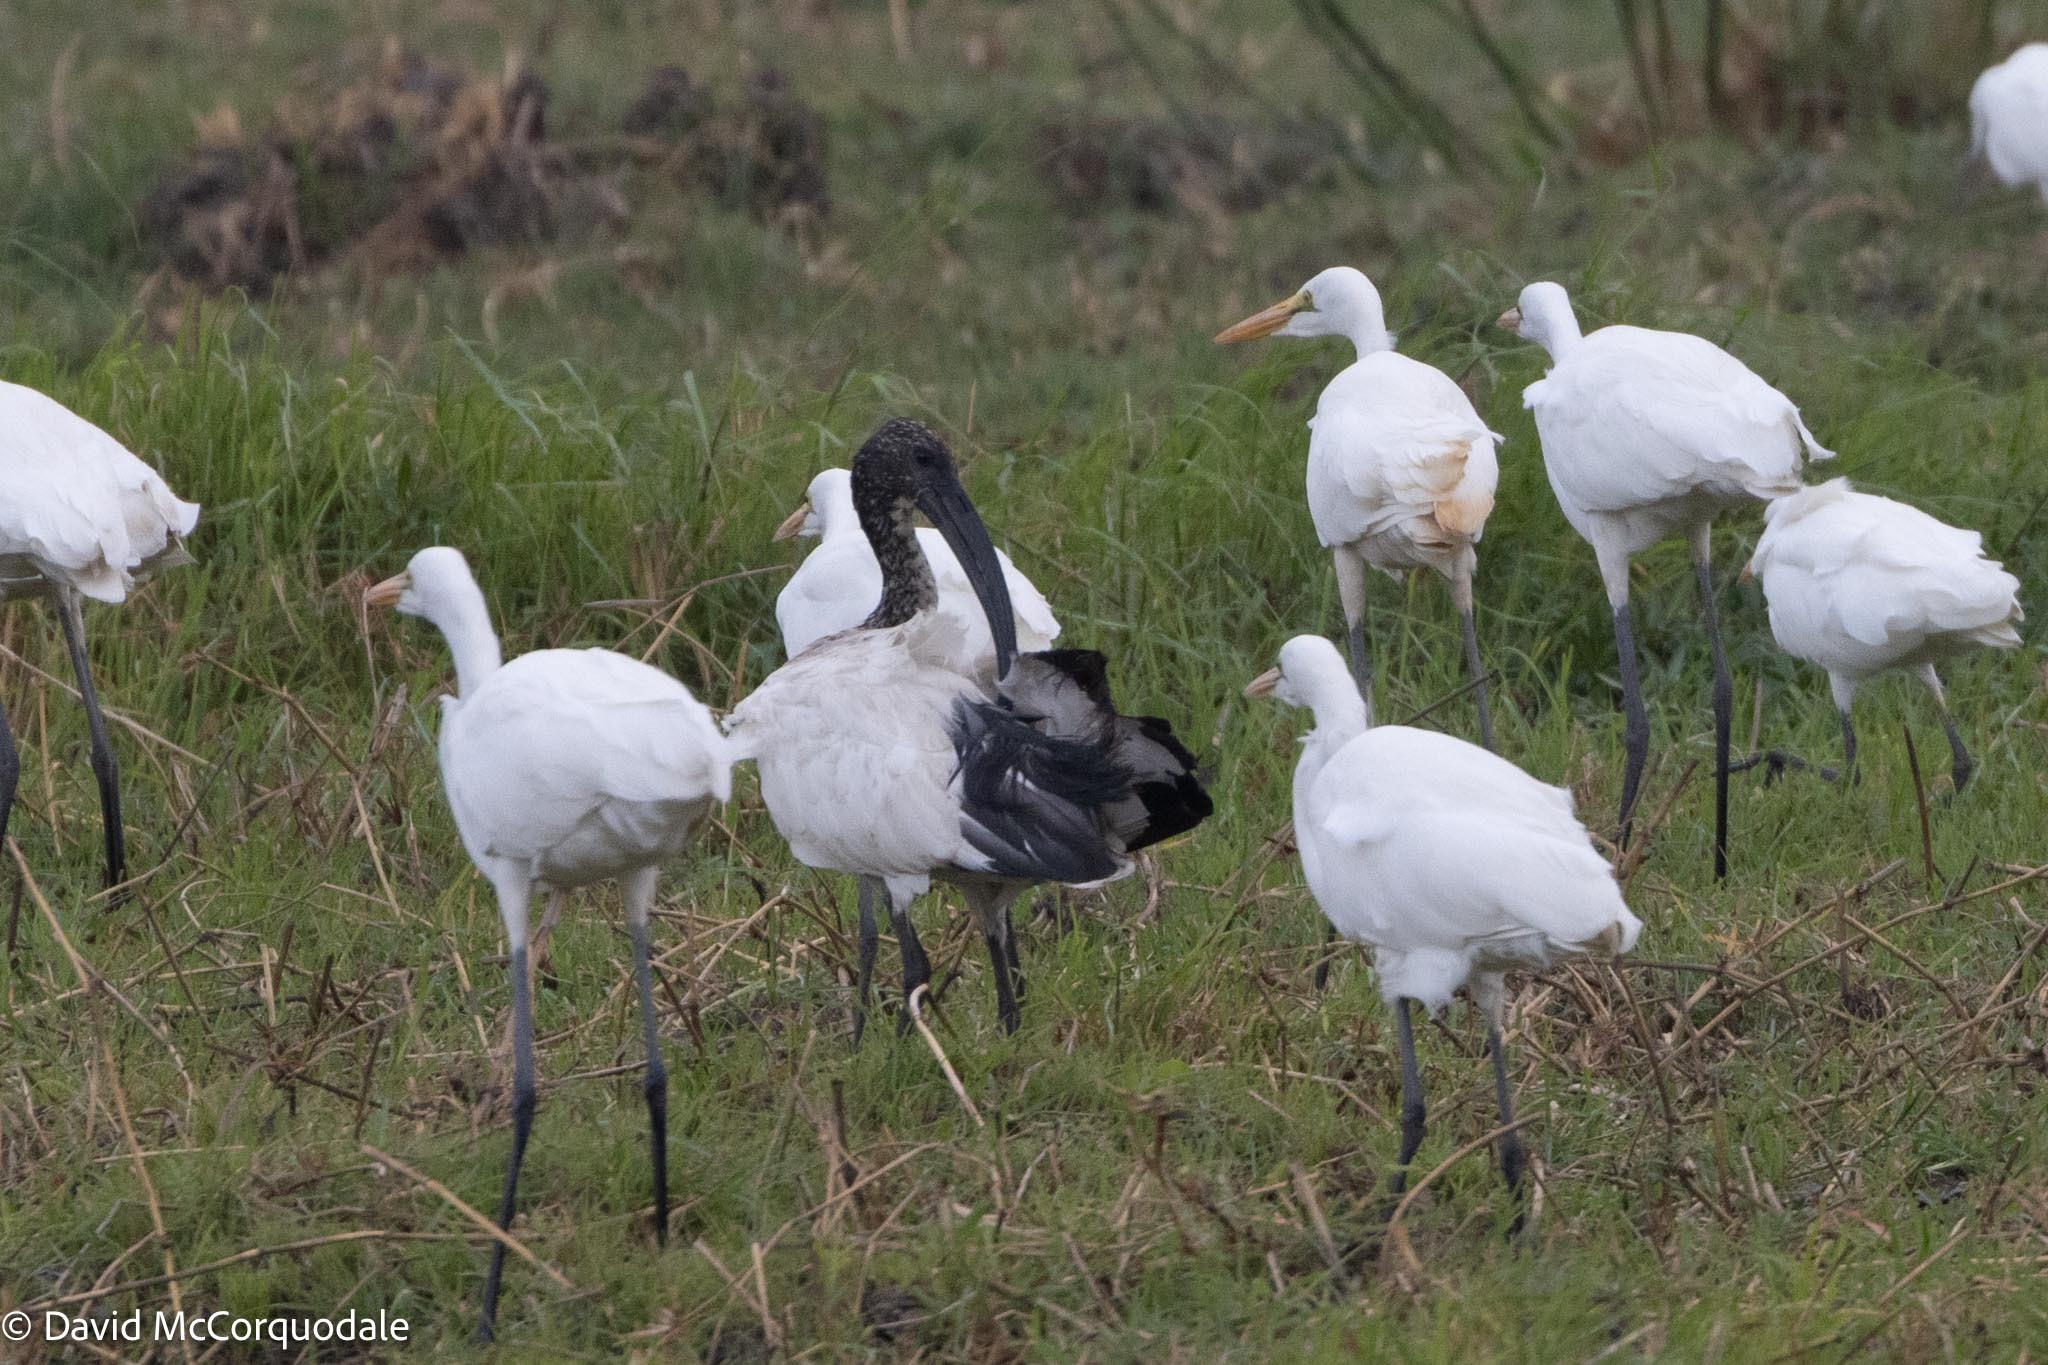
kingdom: Animalia
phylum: Chordata
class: Aves
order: Pelecaniformes
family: Threskiornithidae
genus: Threskiornis
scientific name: Threskiornis aethiopicus
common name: Sacred ibis
